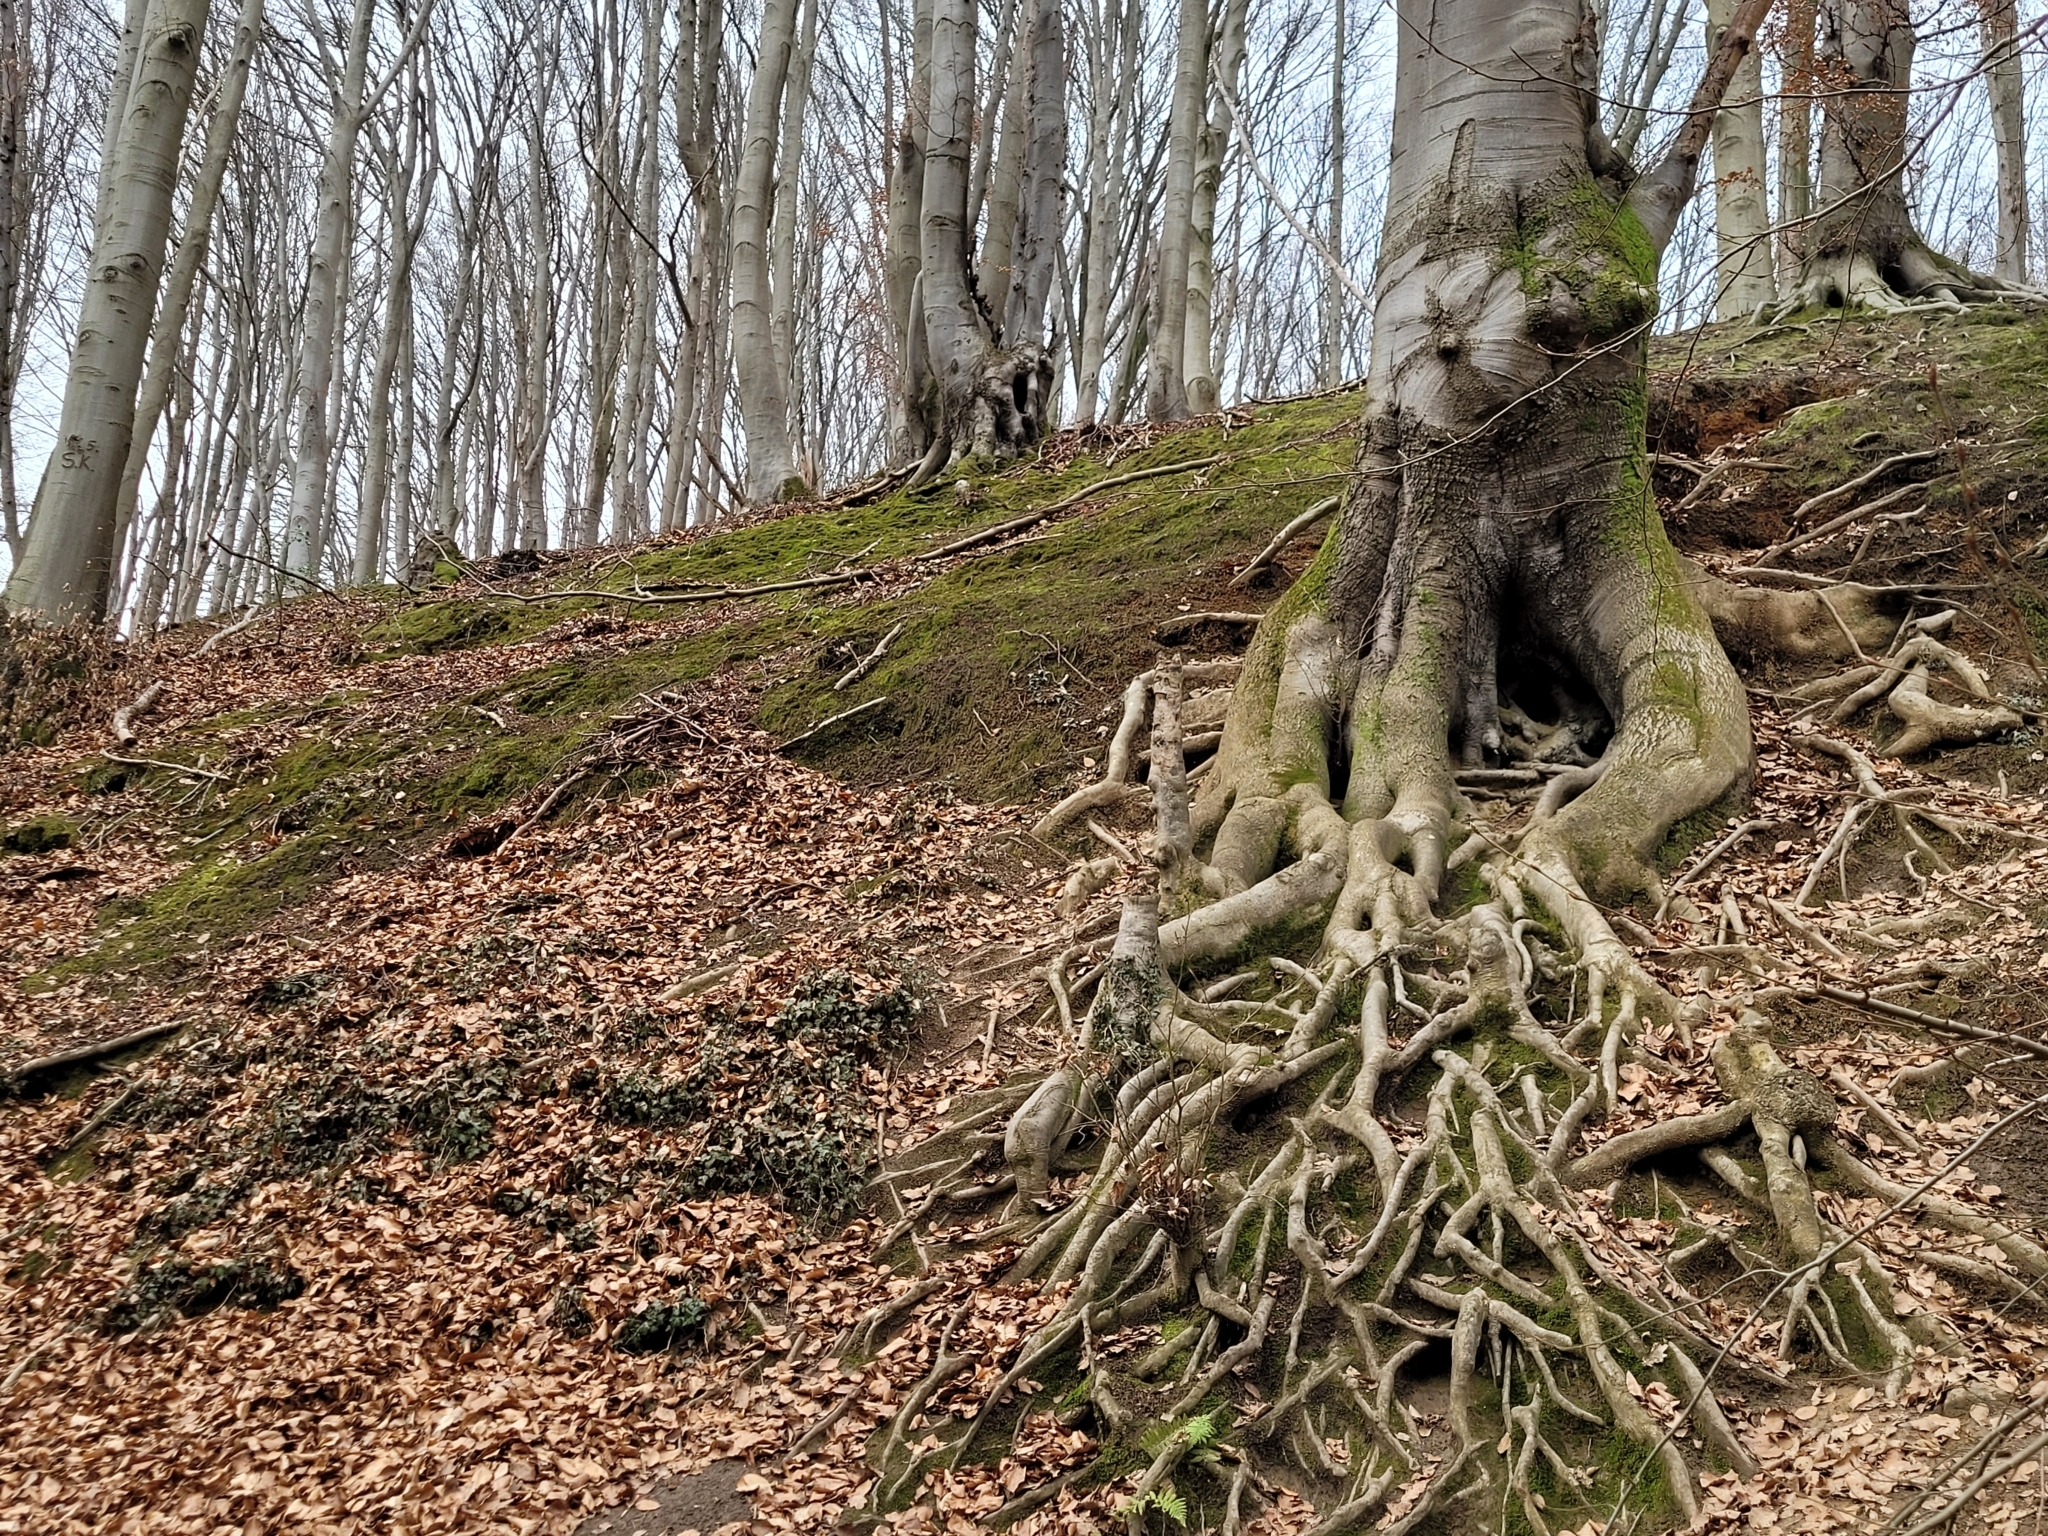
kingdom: Plantae
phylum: Tracheophyta
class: Magnoliopsida
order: Fagales
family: Fagaceae
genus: Fagus
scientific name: Fagus sylvatica
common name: Beech
